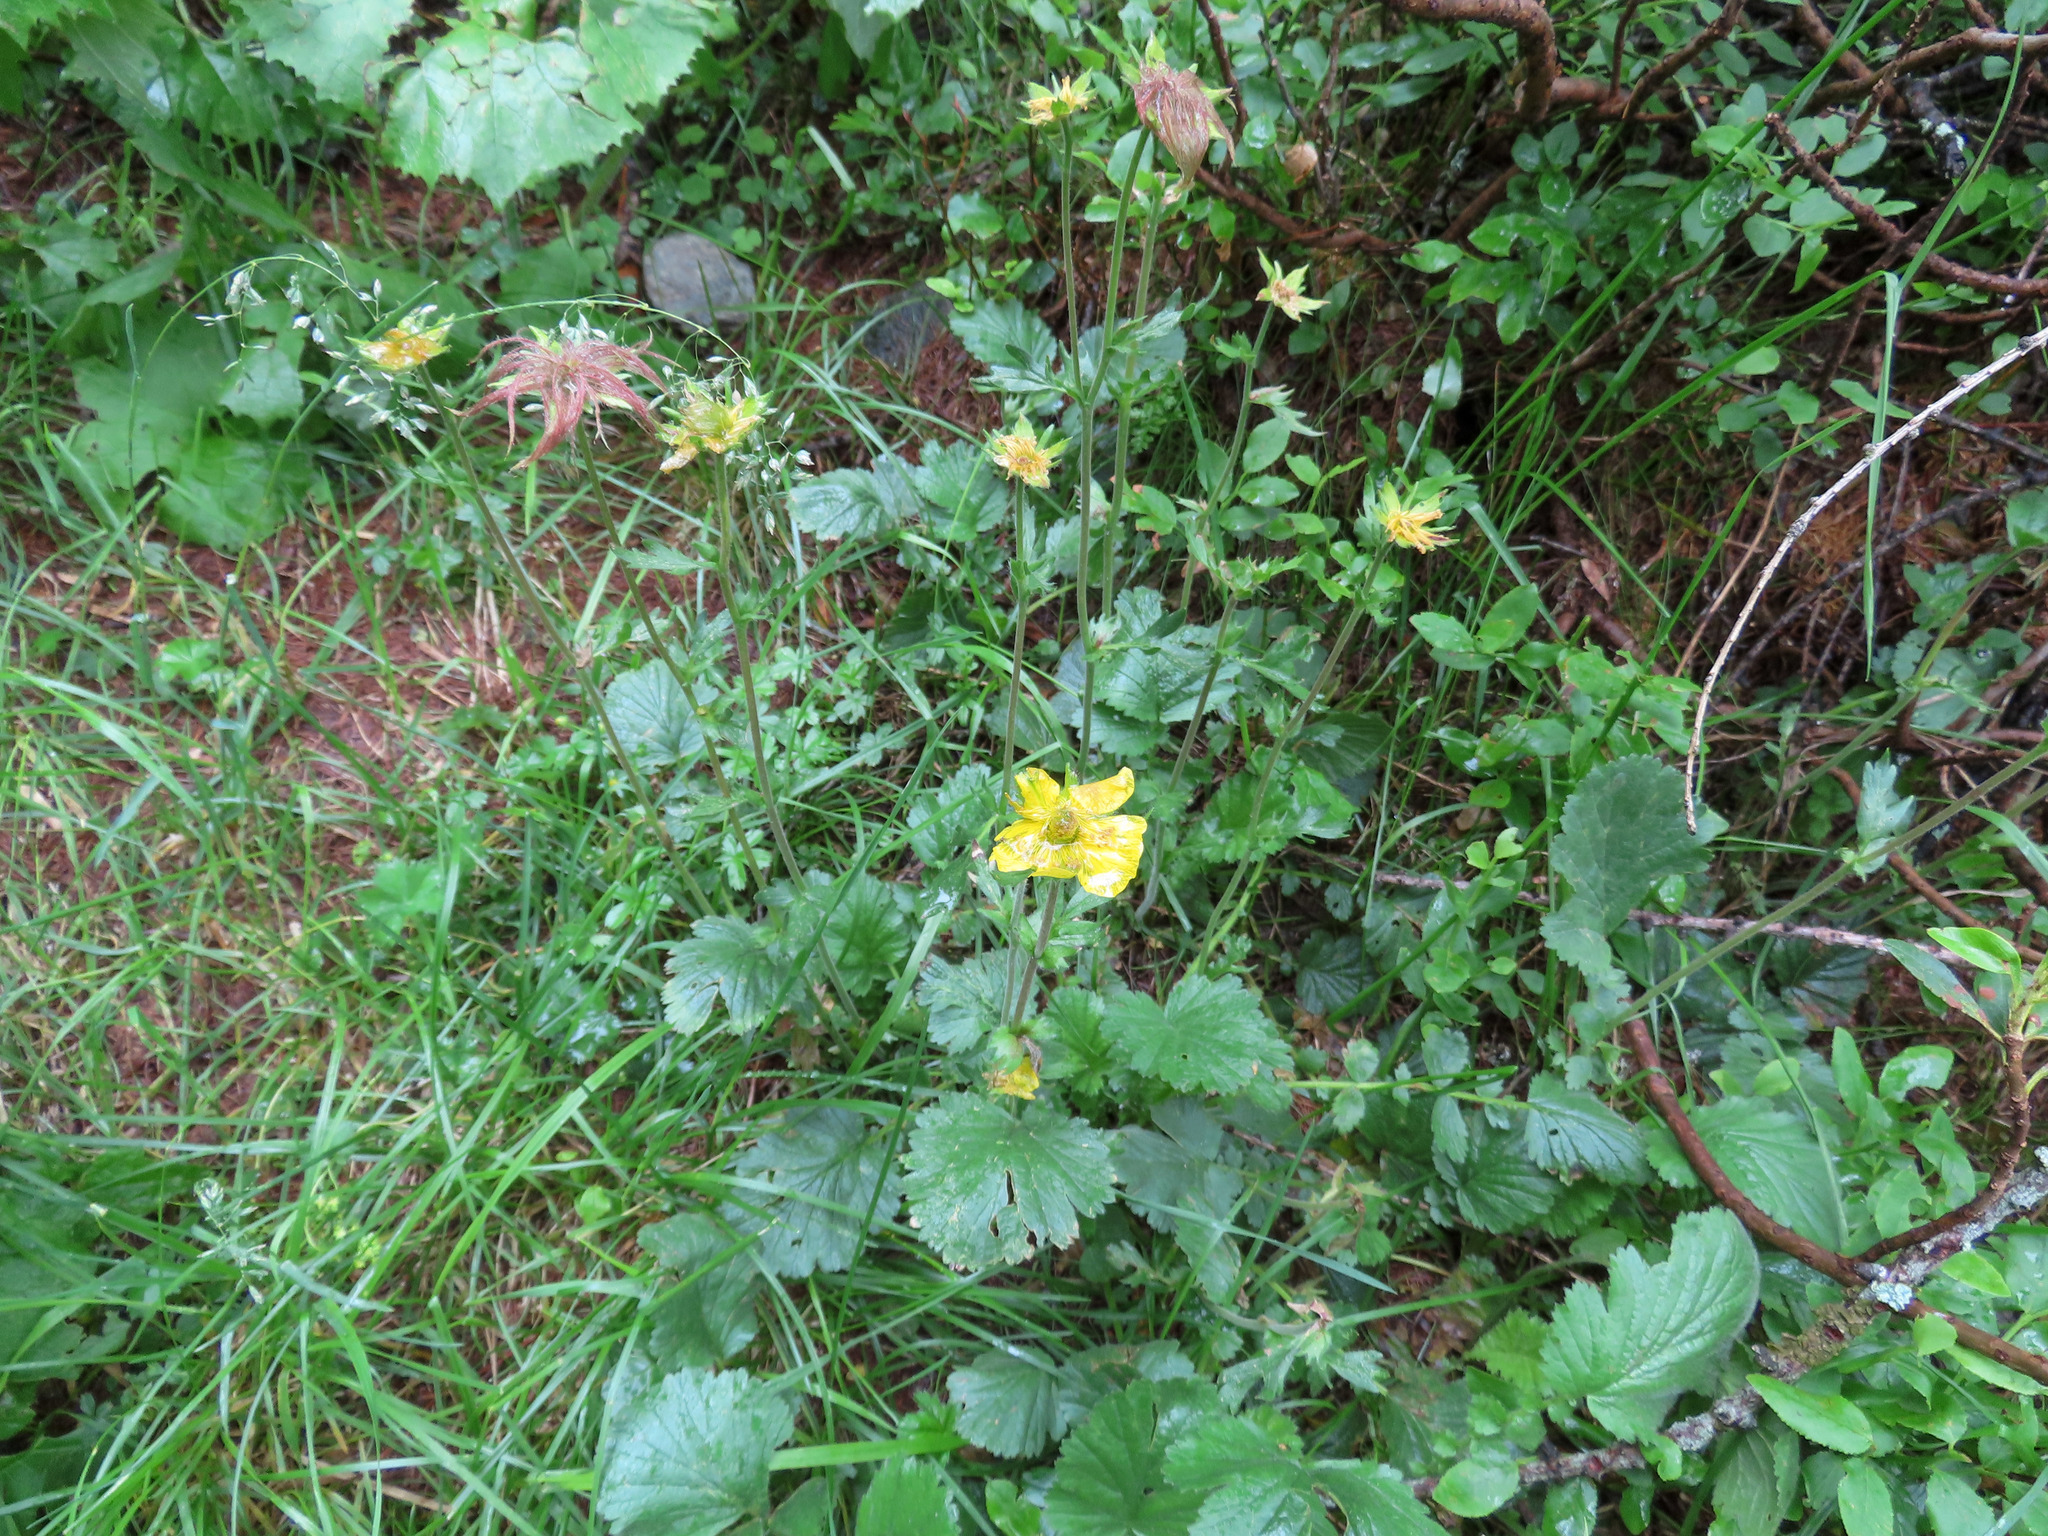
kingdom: Plantae
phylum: Tracheophyta
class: Magnoliopsida
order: Rosales
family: Rosaceae
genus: Geum
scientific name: Geum montanum
